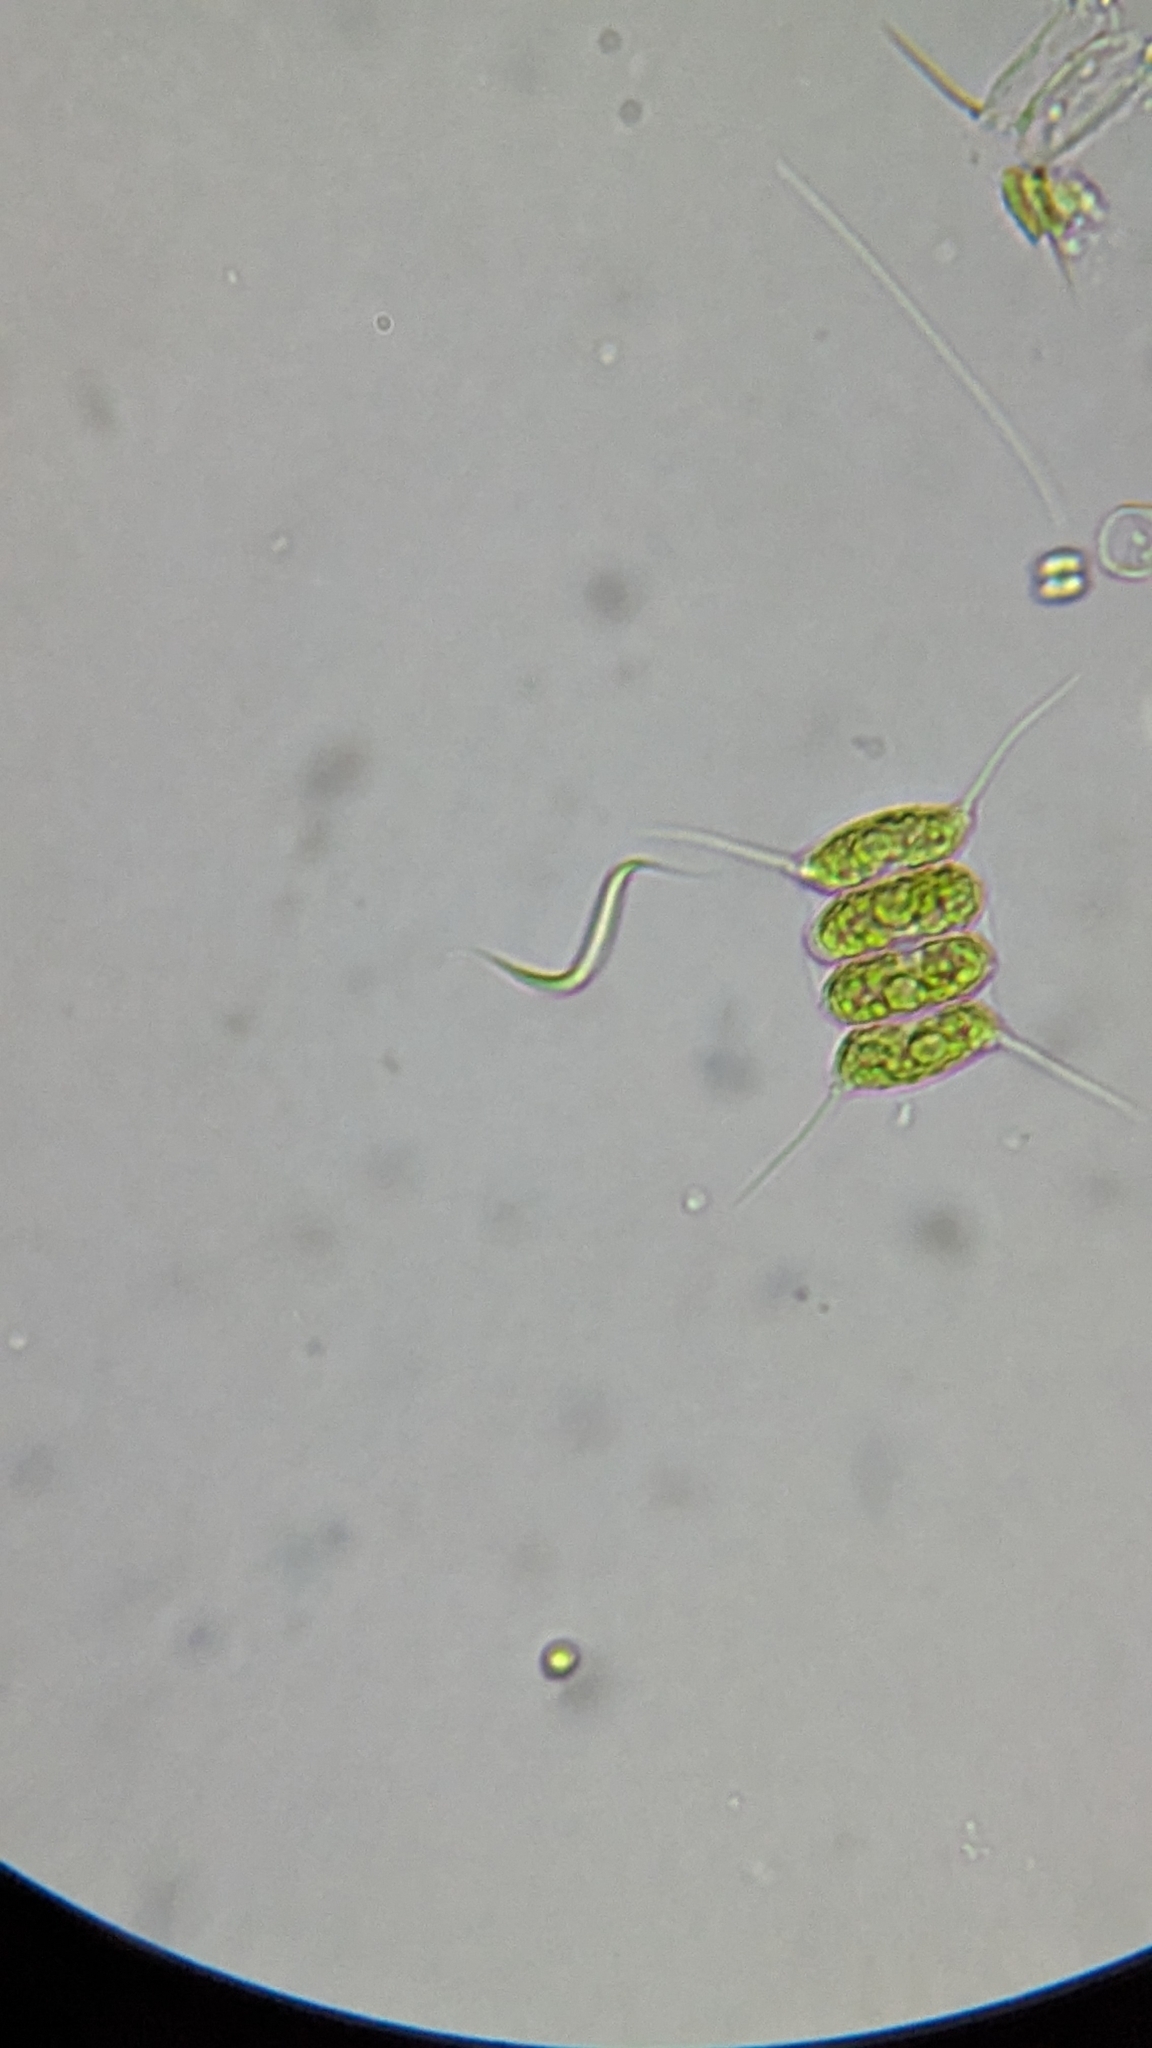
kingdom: Plantae
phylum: Chlorophyta
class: Chlorophyceae
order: Sphaeropleales
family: Selenastraceae
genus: Monoraphidium
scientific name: Monoraphidium contortum
